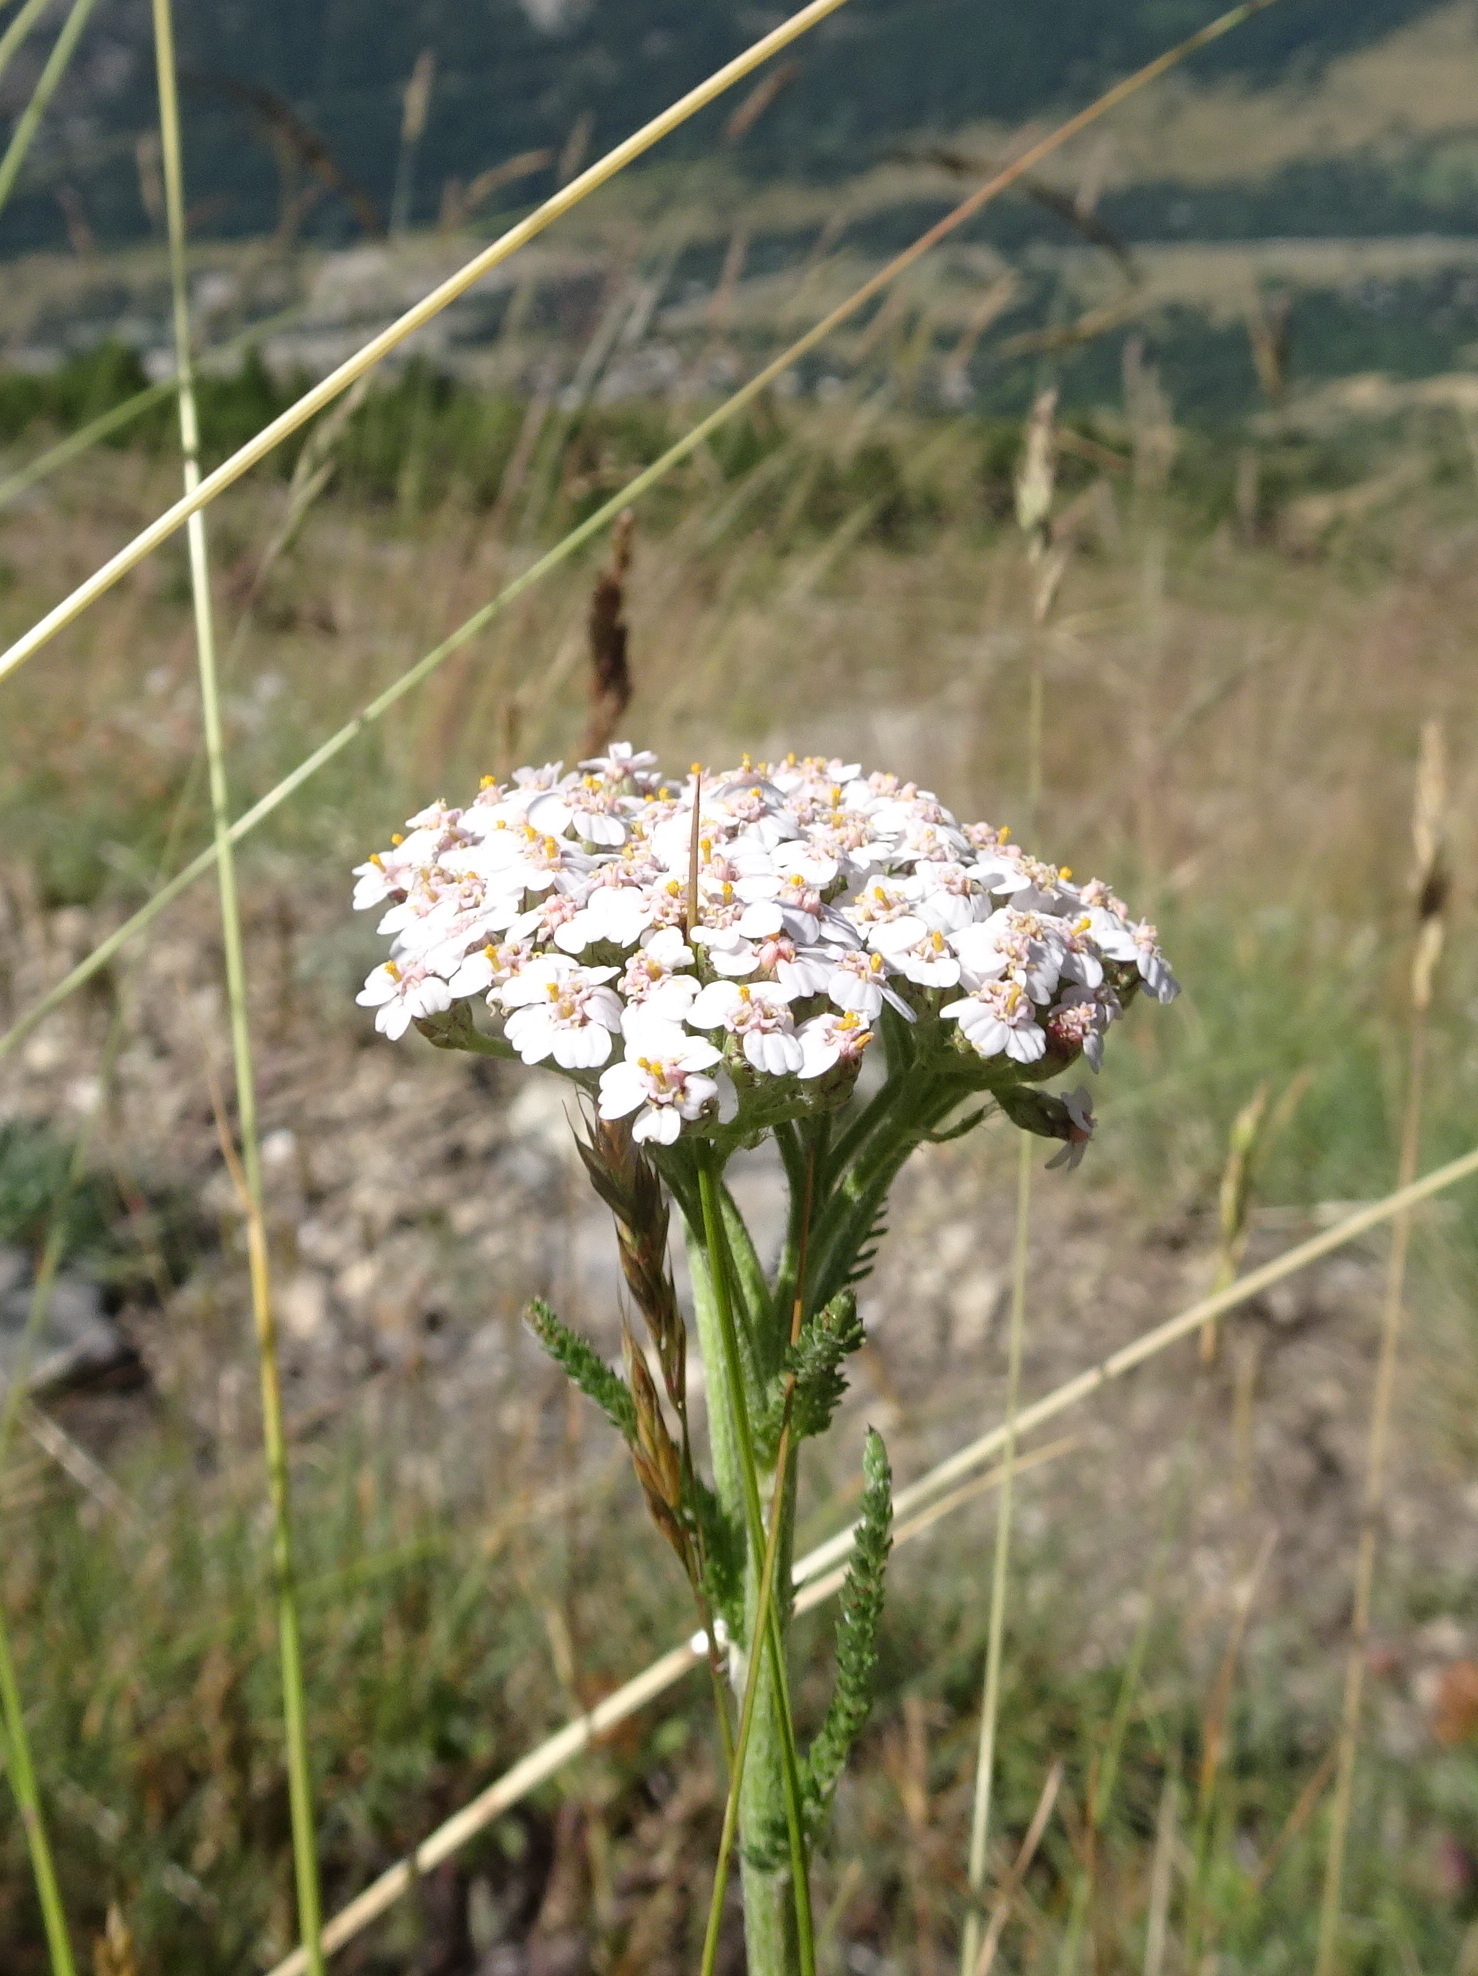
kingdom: Plantae
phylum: Tracheophyta
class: Magnoliopsida
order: Asterales
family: Asteraceae
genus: Achillea
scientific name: Achillea millefolium
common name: Yarrow
